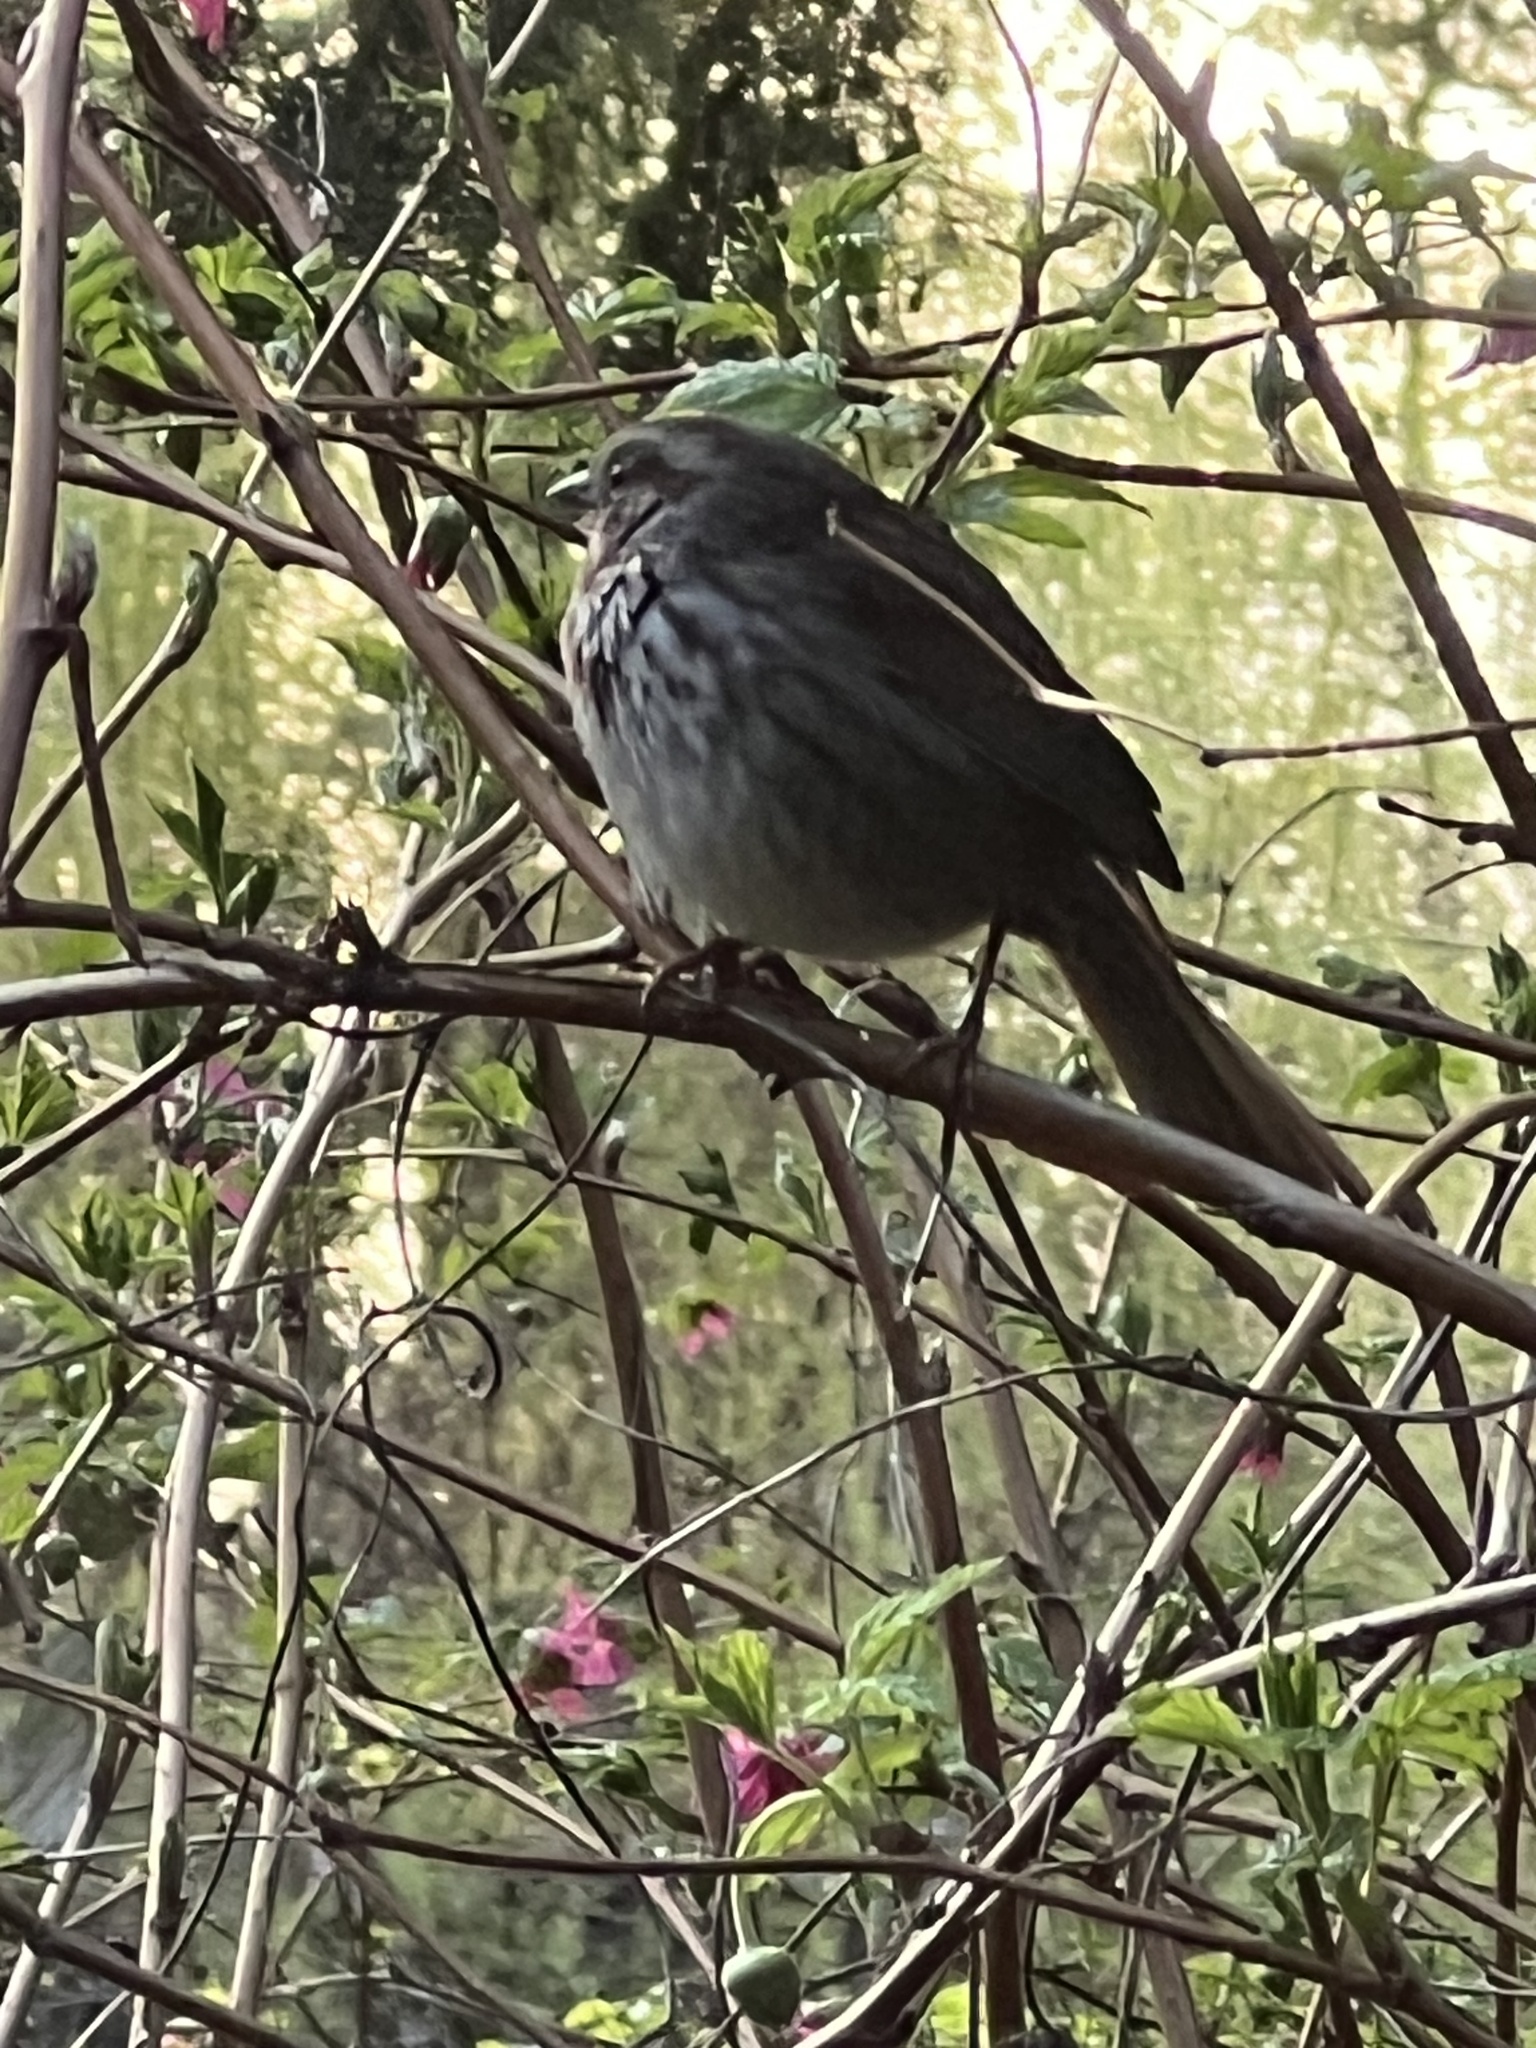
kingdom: Animalia
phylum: Chordata
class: Aves
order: Passeriformes
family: Passerellidae
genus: Melospiza
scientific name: Melospiza melodia
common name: Song sparrow
